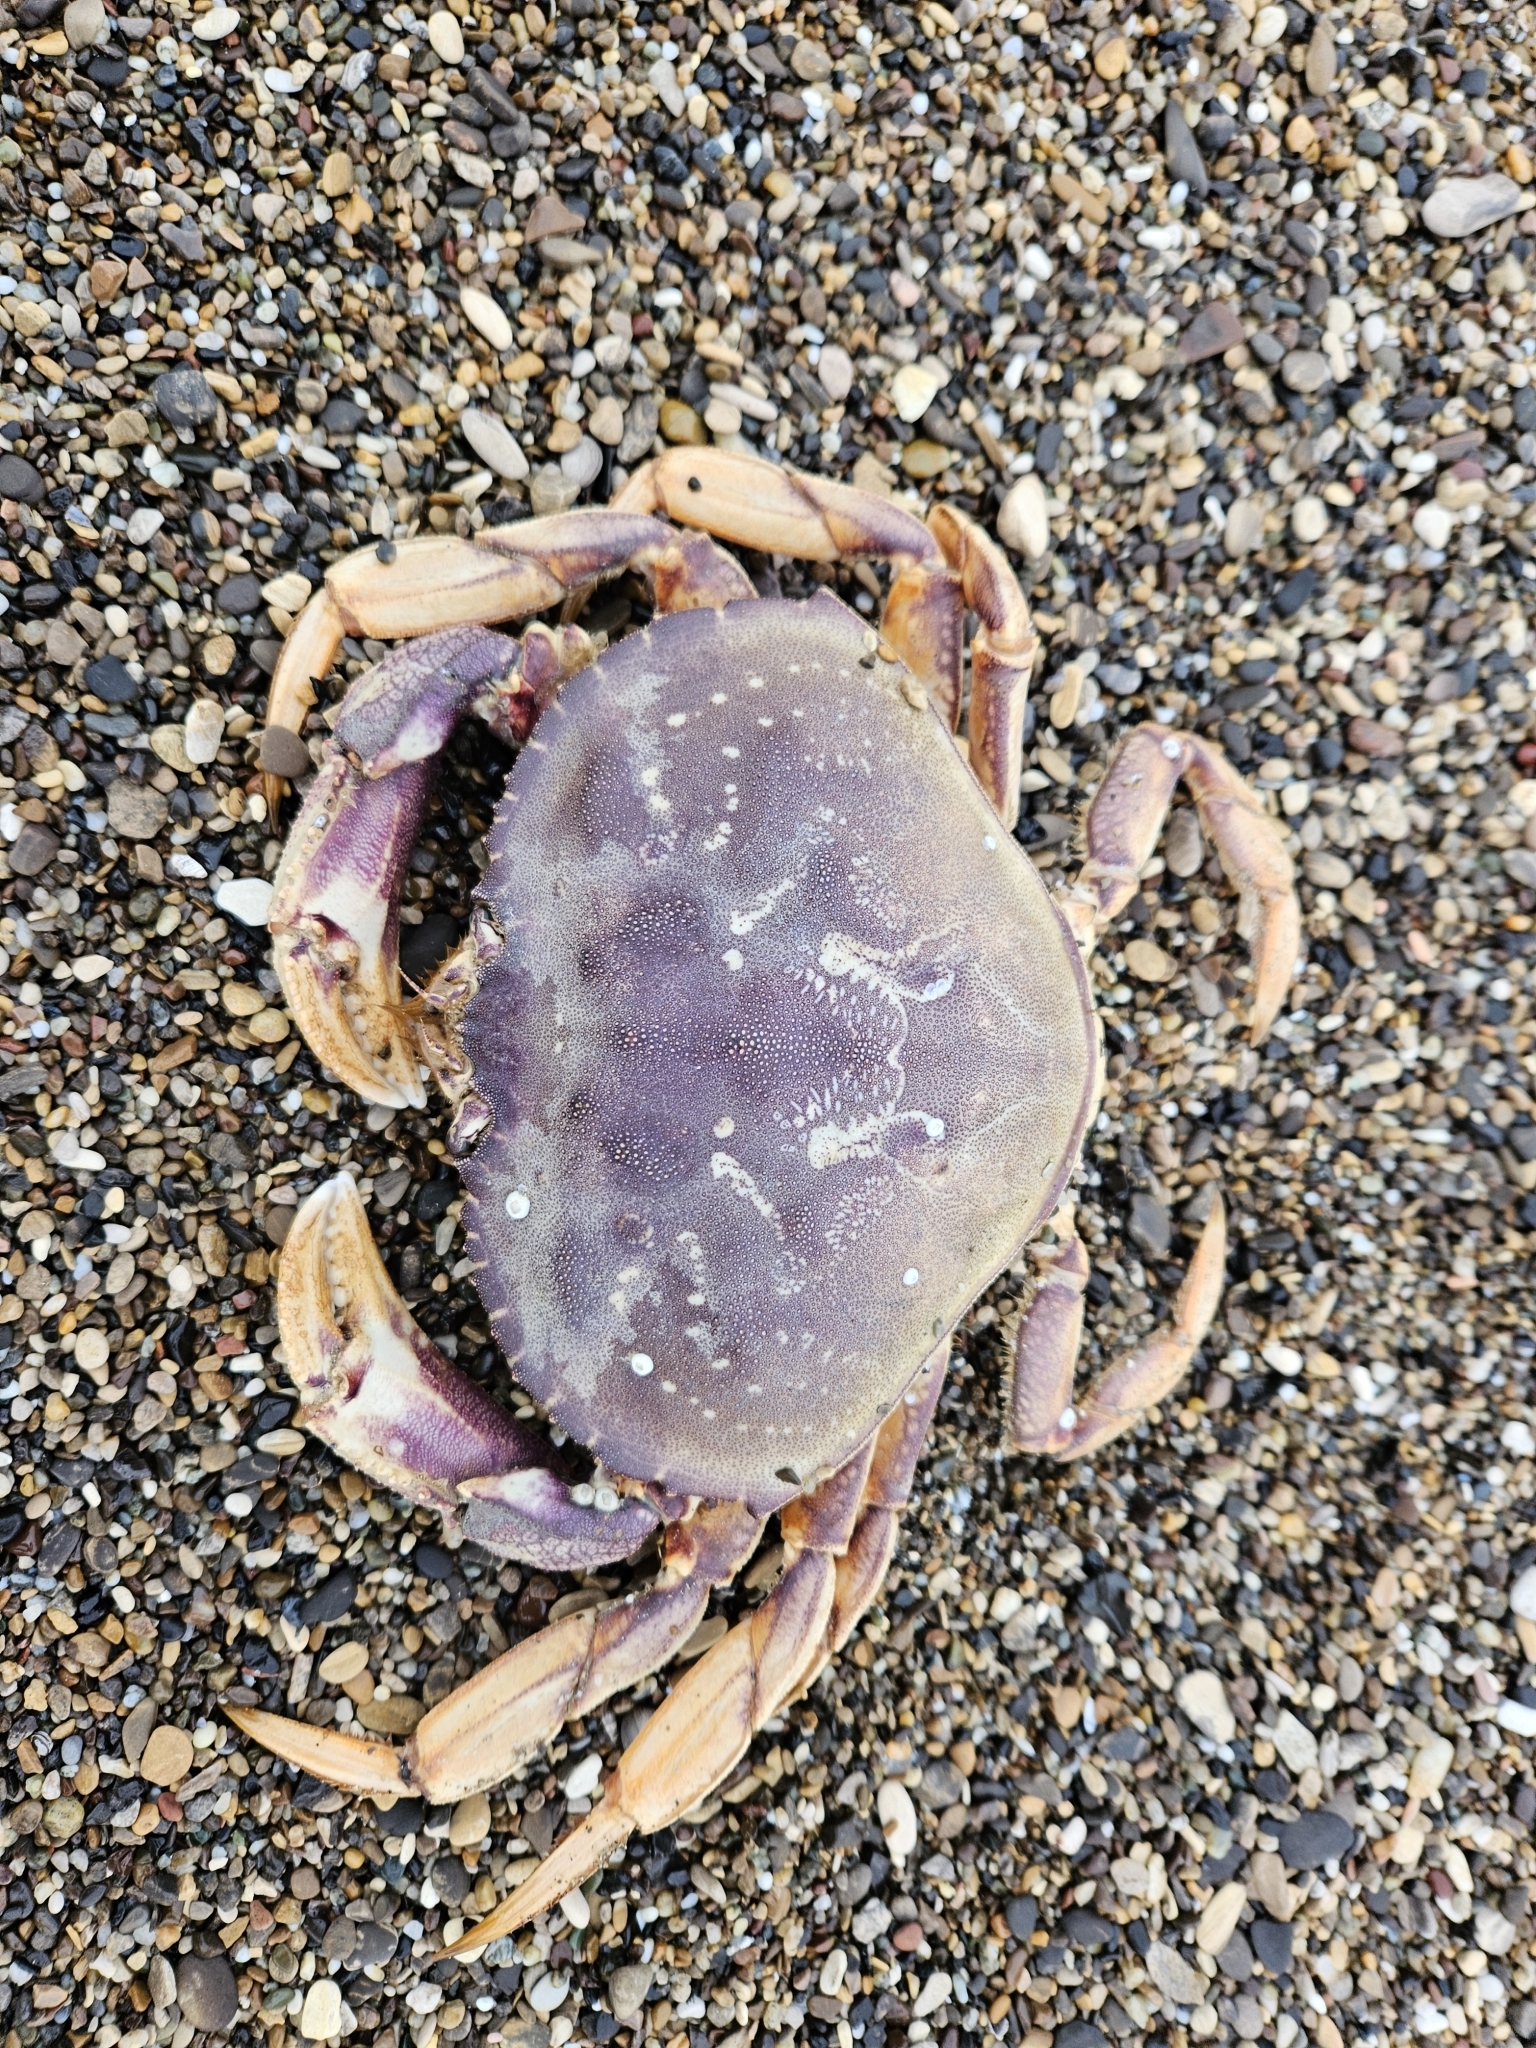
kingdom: Animalia
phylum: Arthropoda
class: Malacostraca
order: Decapoda
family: Cancridae
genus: Metacarcinus
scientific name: Metacarcinus magister
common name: Californian crab
